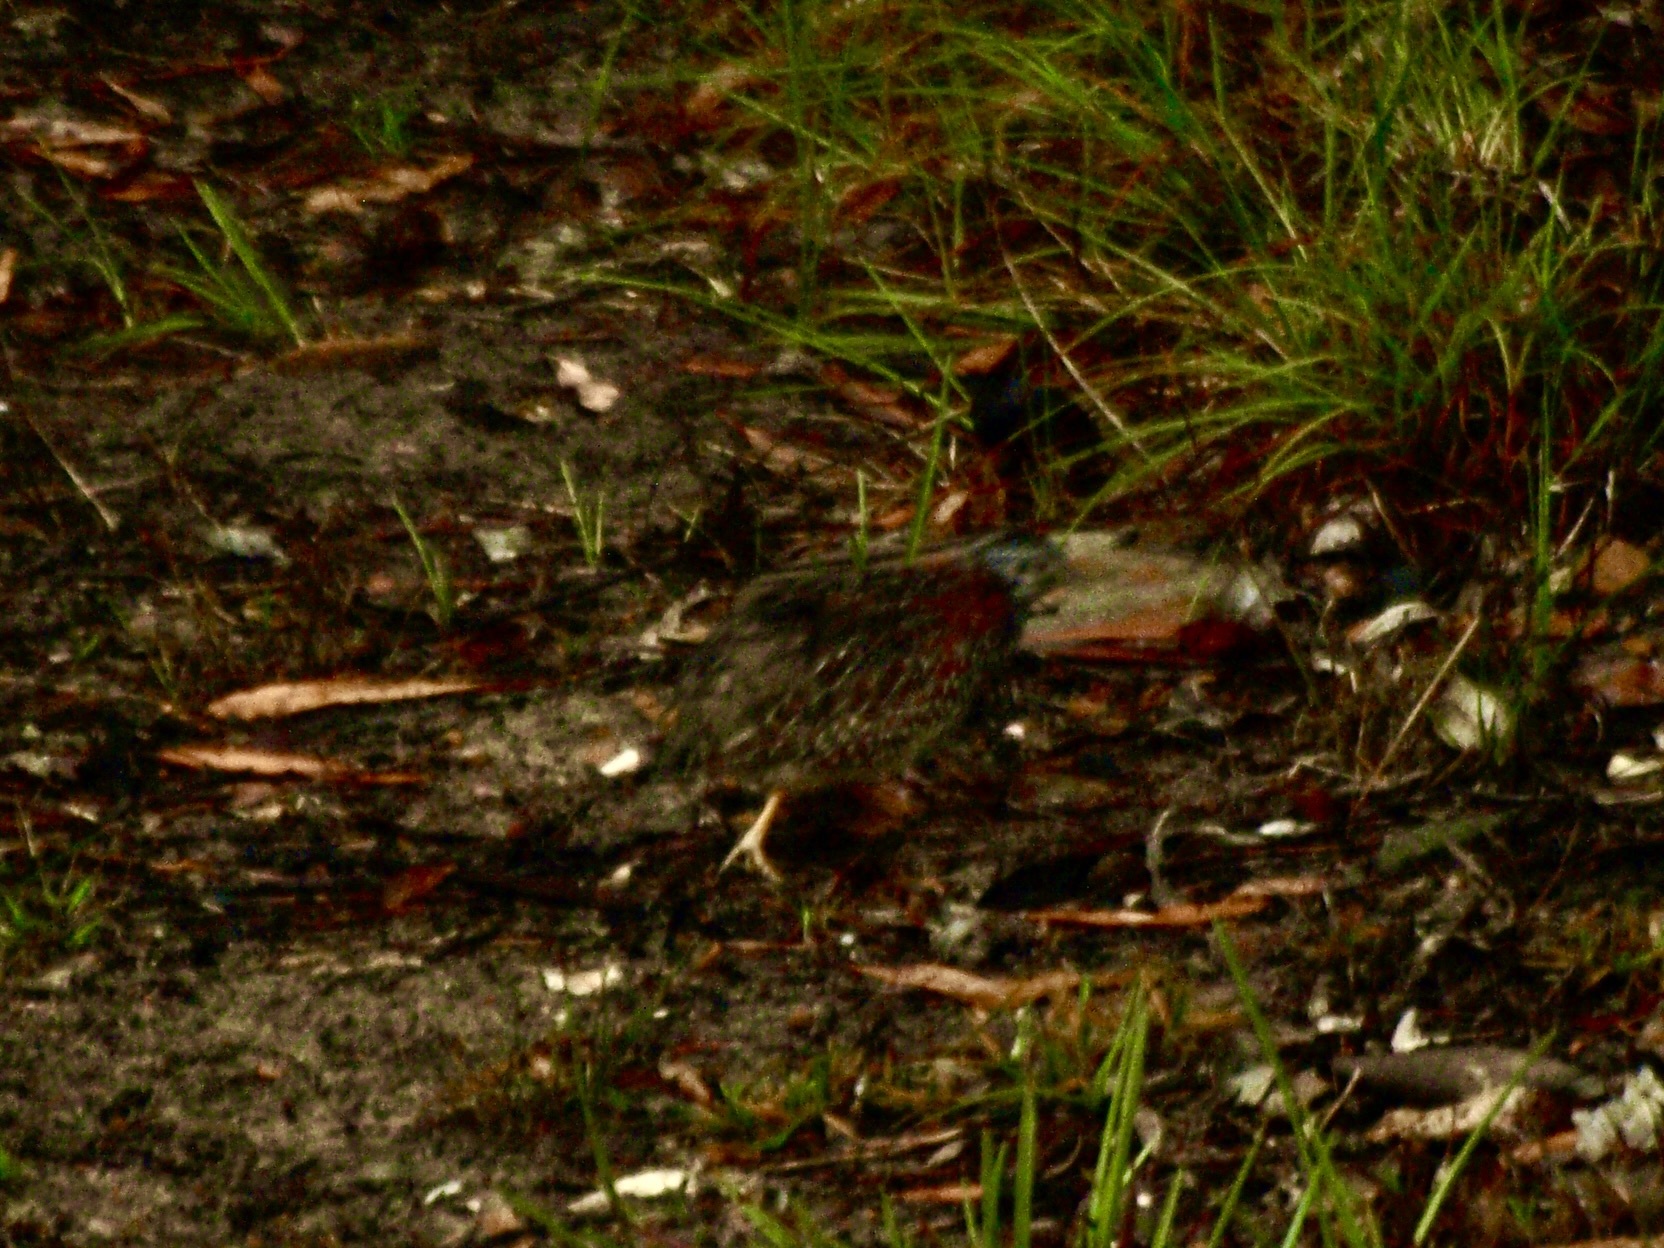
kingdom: Animalia
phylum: Chordata
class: Aves
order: Charadriiformes
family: Turnicidae
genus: Turnix
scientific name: Turnix varius
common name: Painted buttonquail
